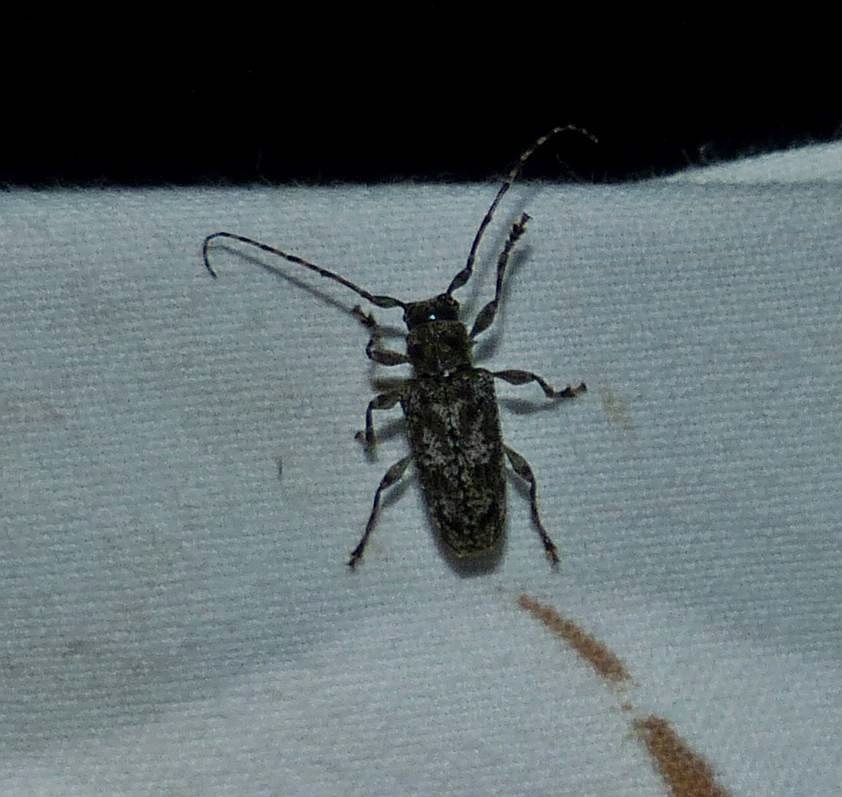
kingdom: Animalia
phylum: Arthropoda
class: Insecta
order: Coleoptera
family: Cerambycidae
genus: Aegomorphus
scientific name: Aegomorphus modestus
